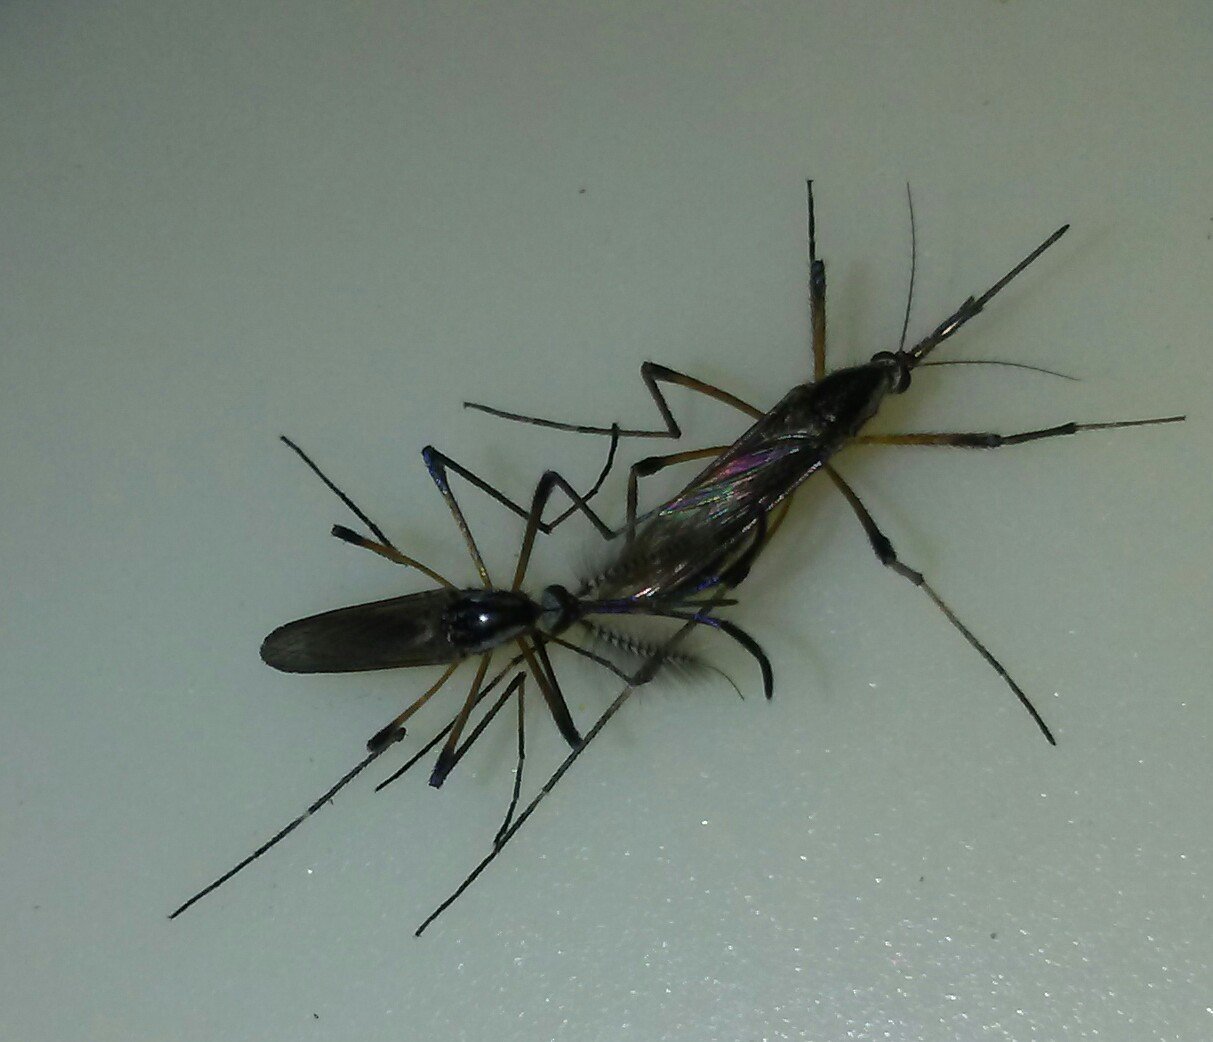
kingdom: Animalia
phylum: Arthropoda
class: Insecta
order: Diptera
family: Culicidae
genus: Psorophora
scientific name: Psorophora howardii
